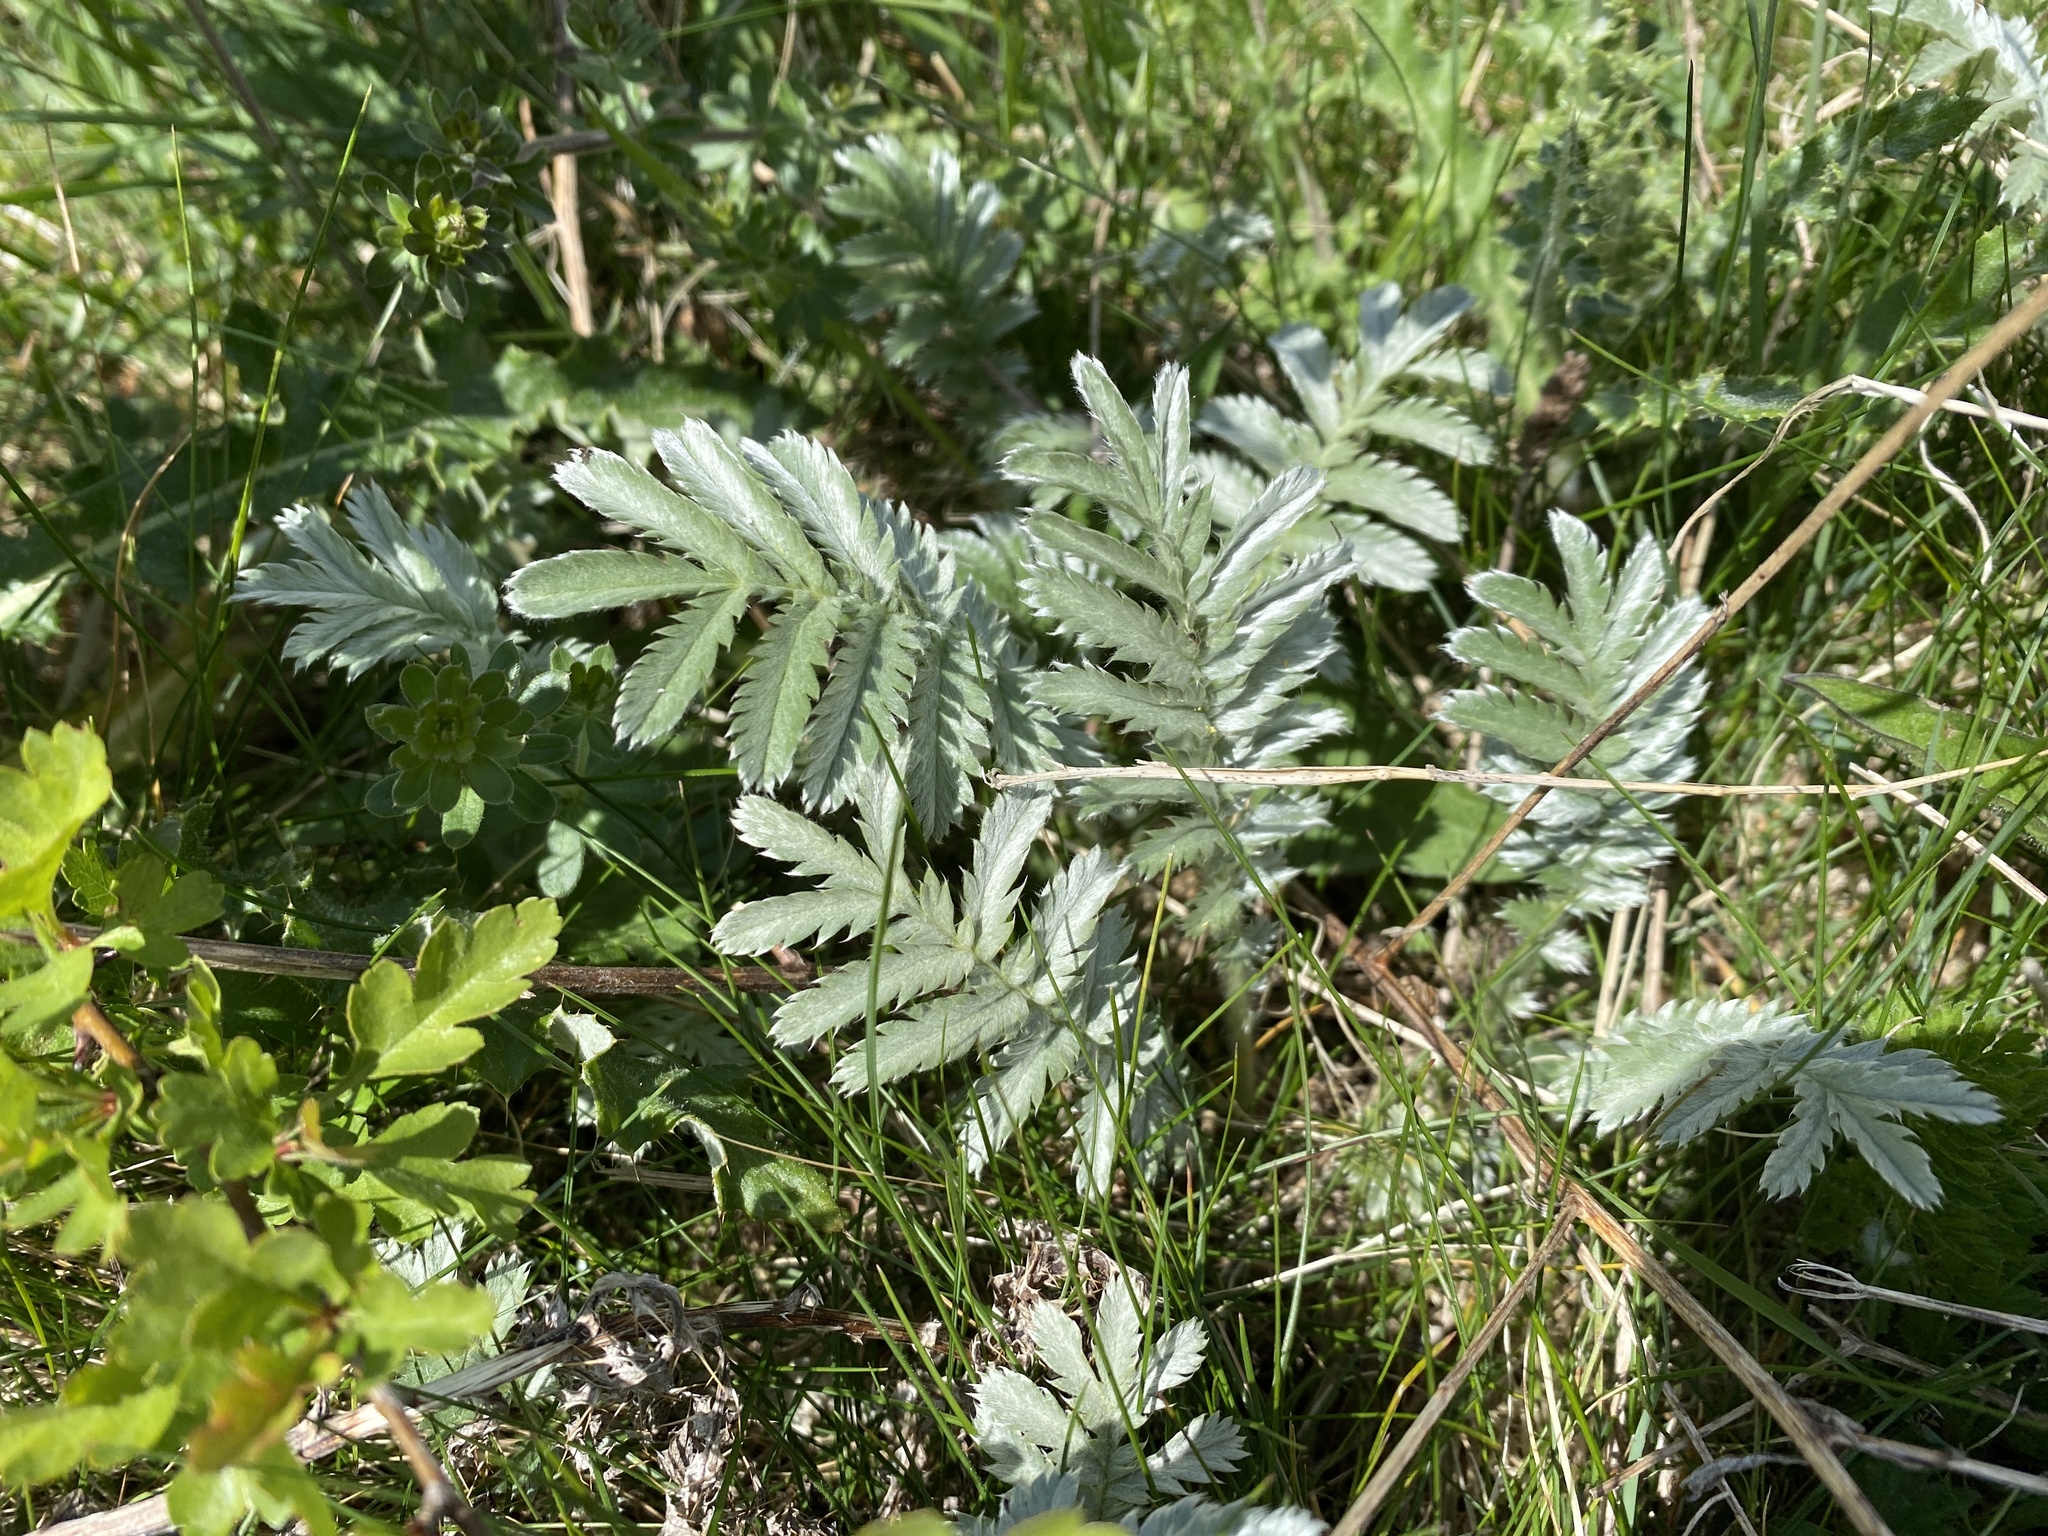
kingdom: Plantae
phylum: Tracheophyta
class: Magnoliopsida
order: Rosales
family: Rosaceae
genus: Argentina
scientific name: Argentina anserina
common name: Common silverweed
